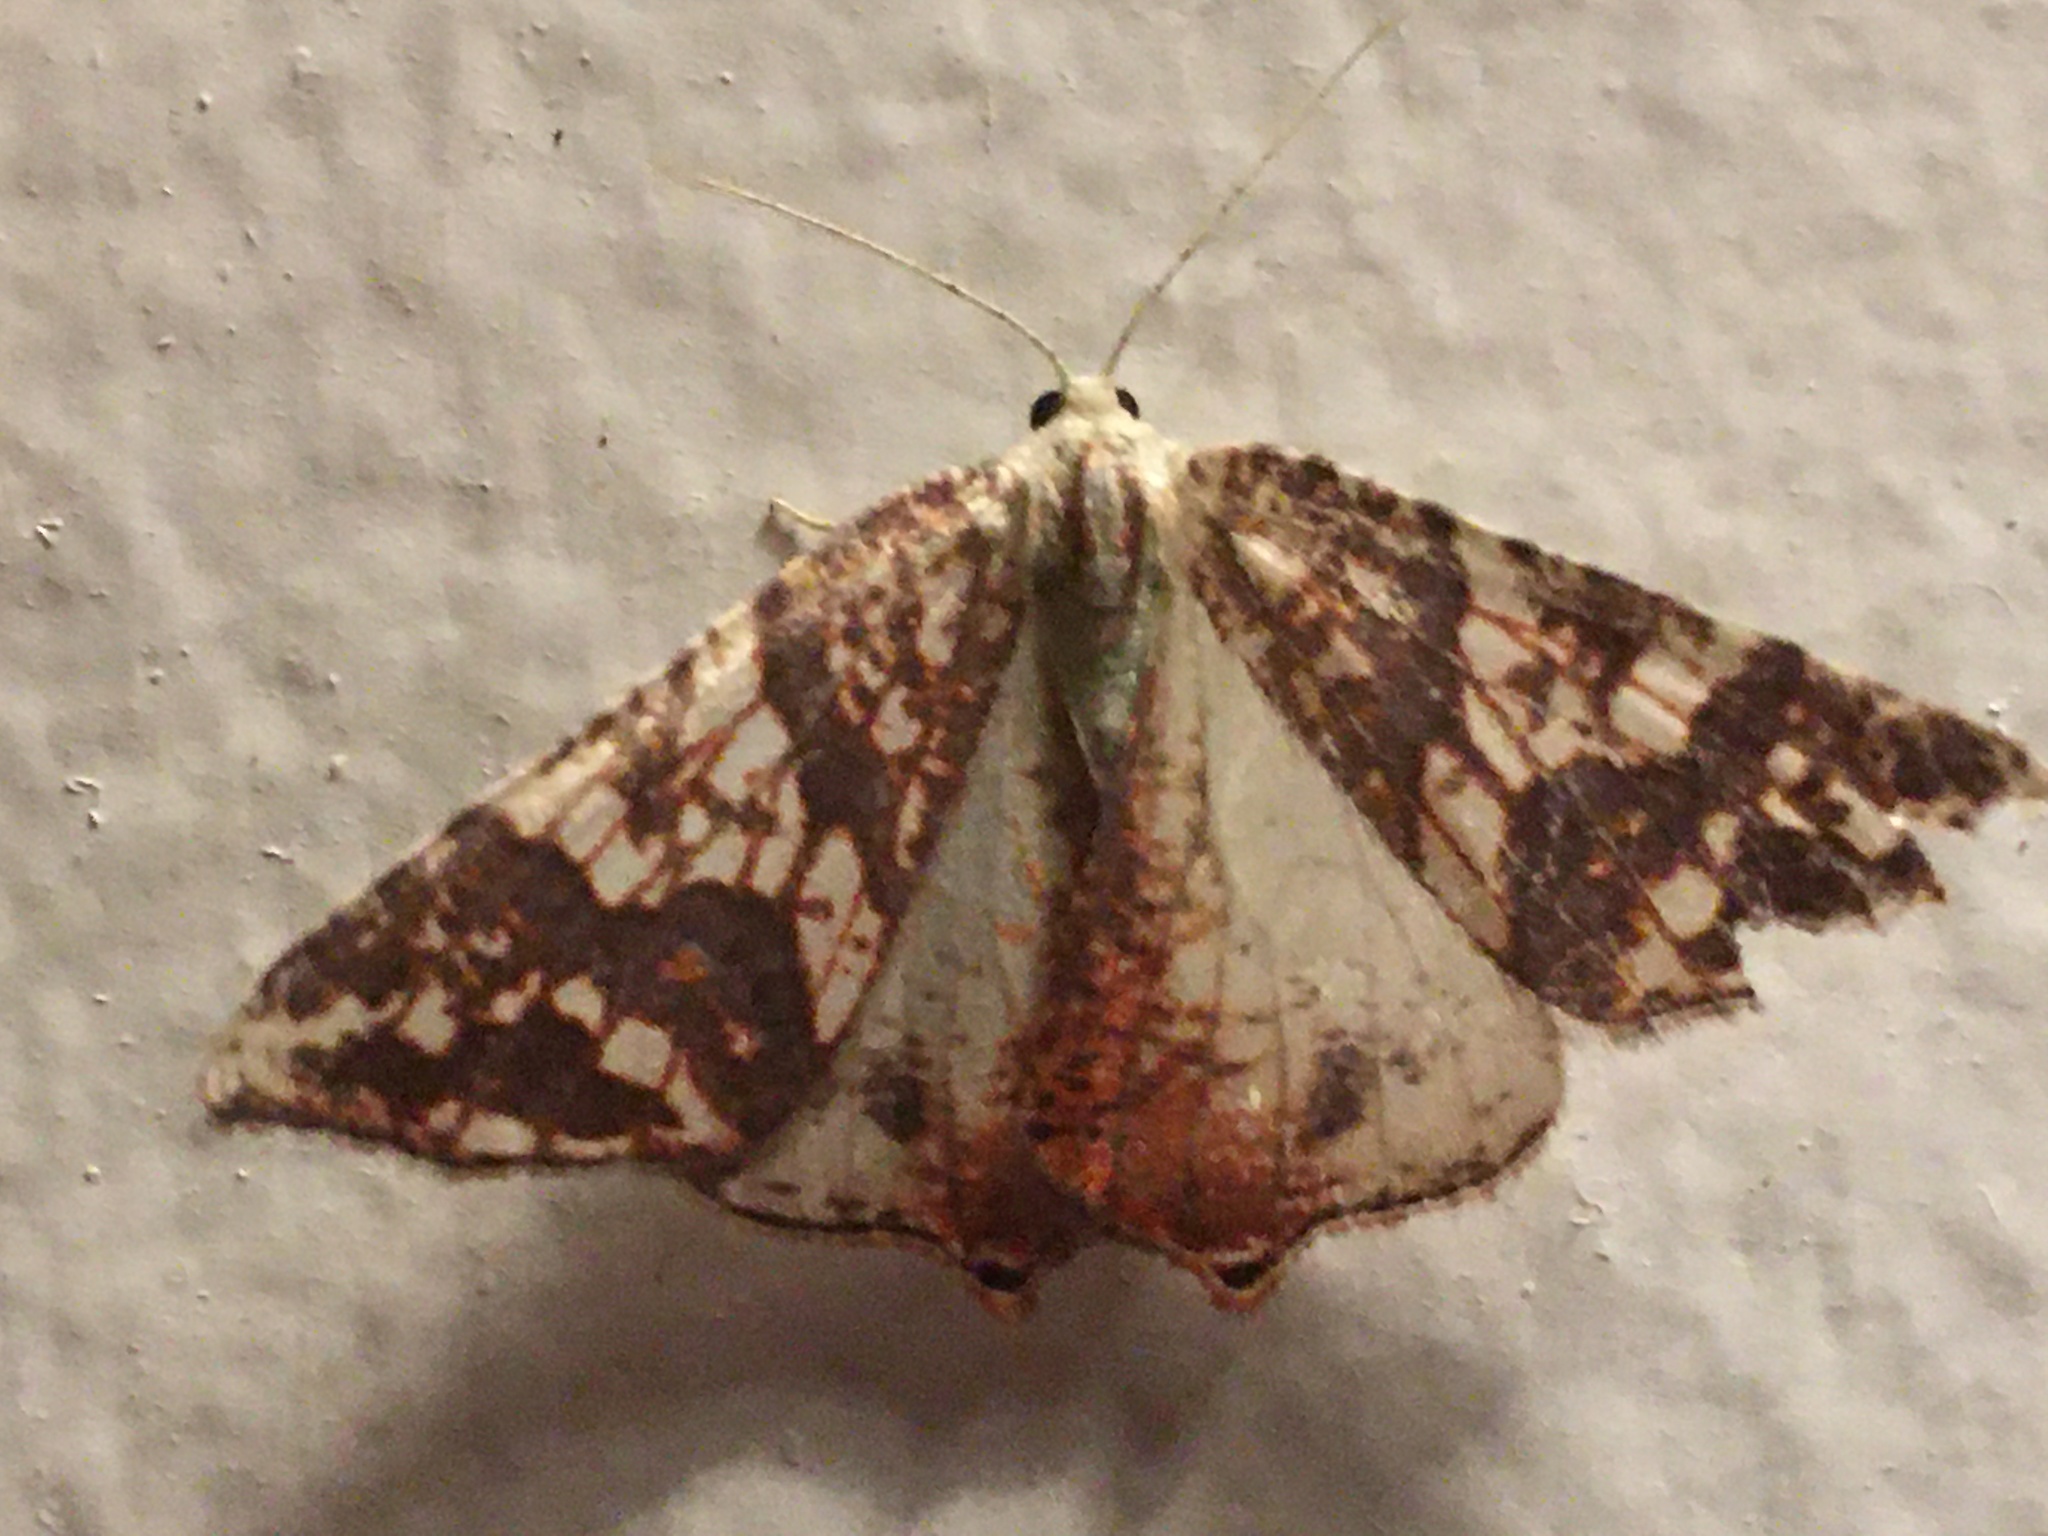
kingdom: Animalia
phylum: Arthropoda
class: Insecta
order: Lepidoptera
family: Geometridae
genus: Rindgeria
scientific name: Rindgeria ornata
